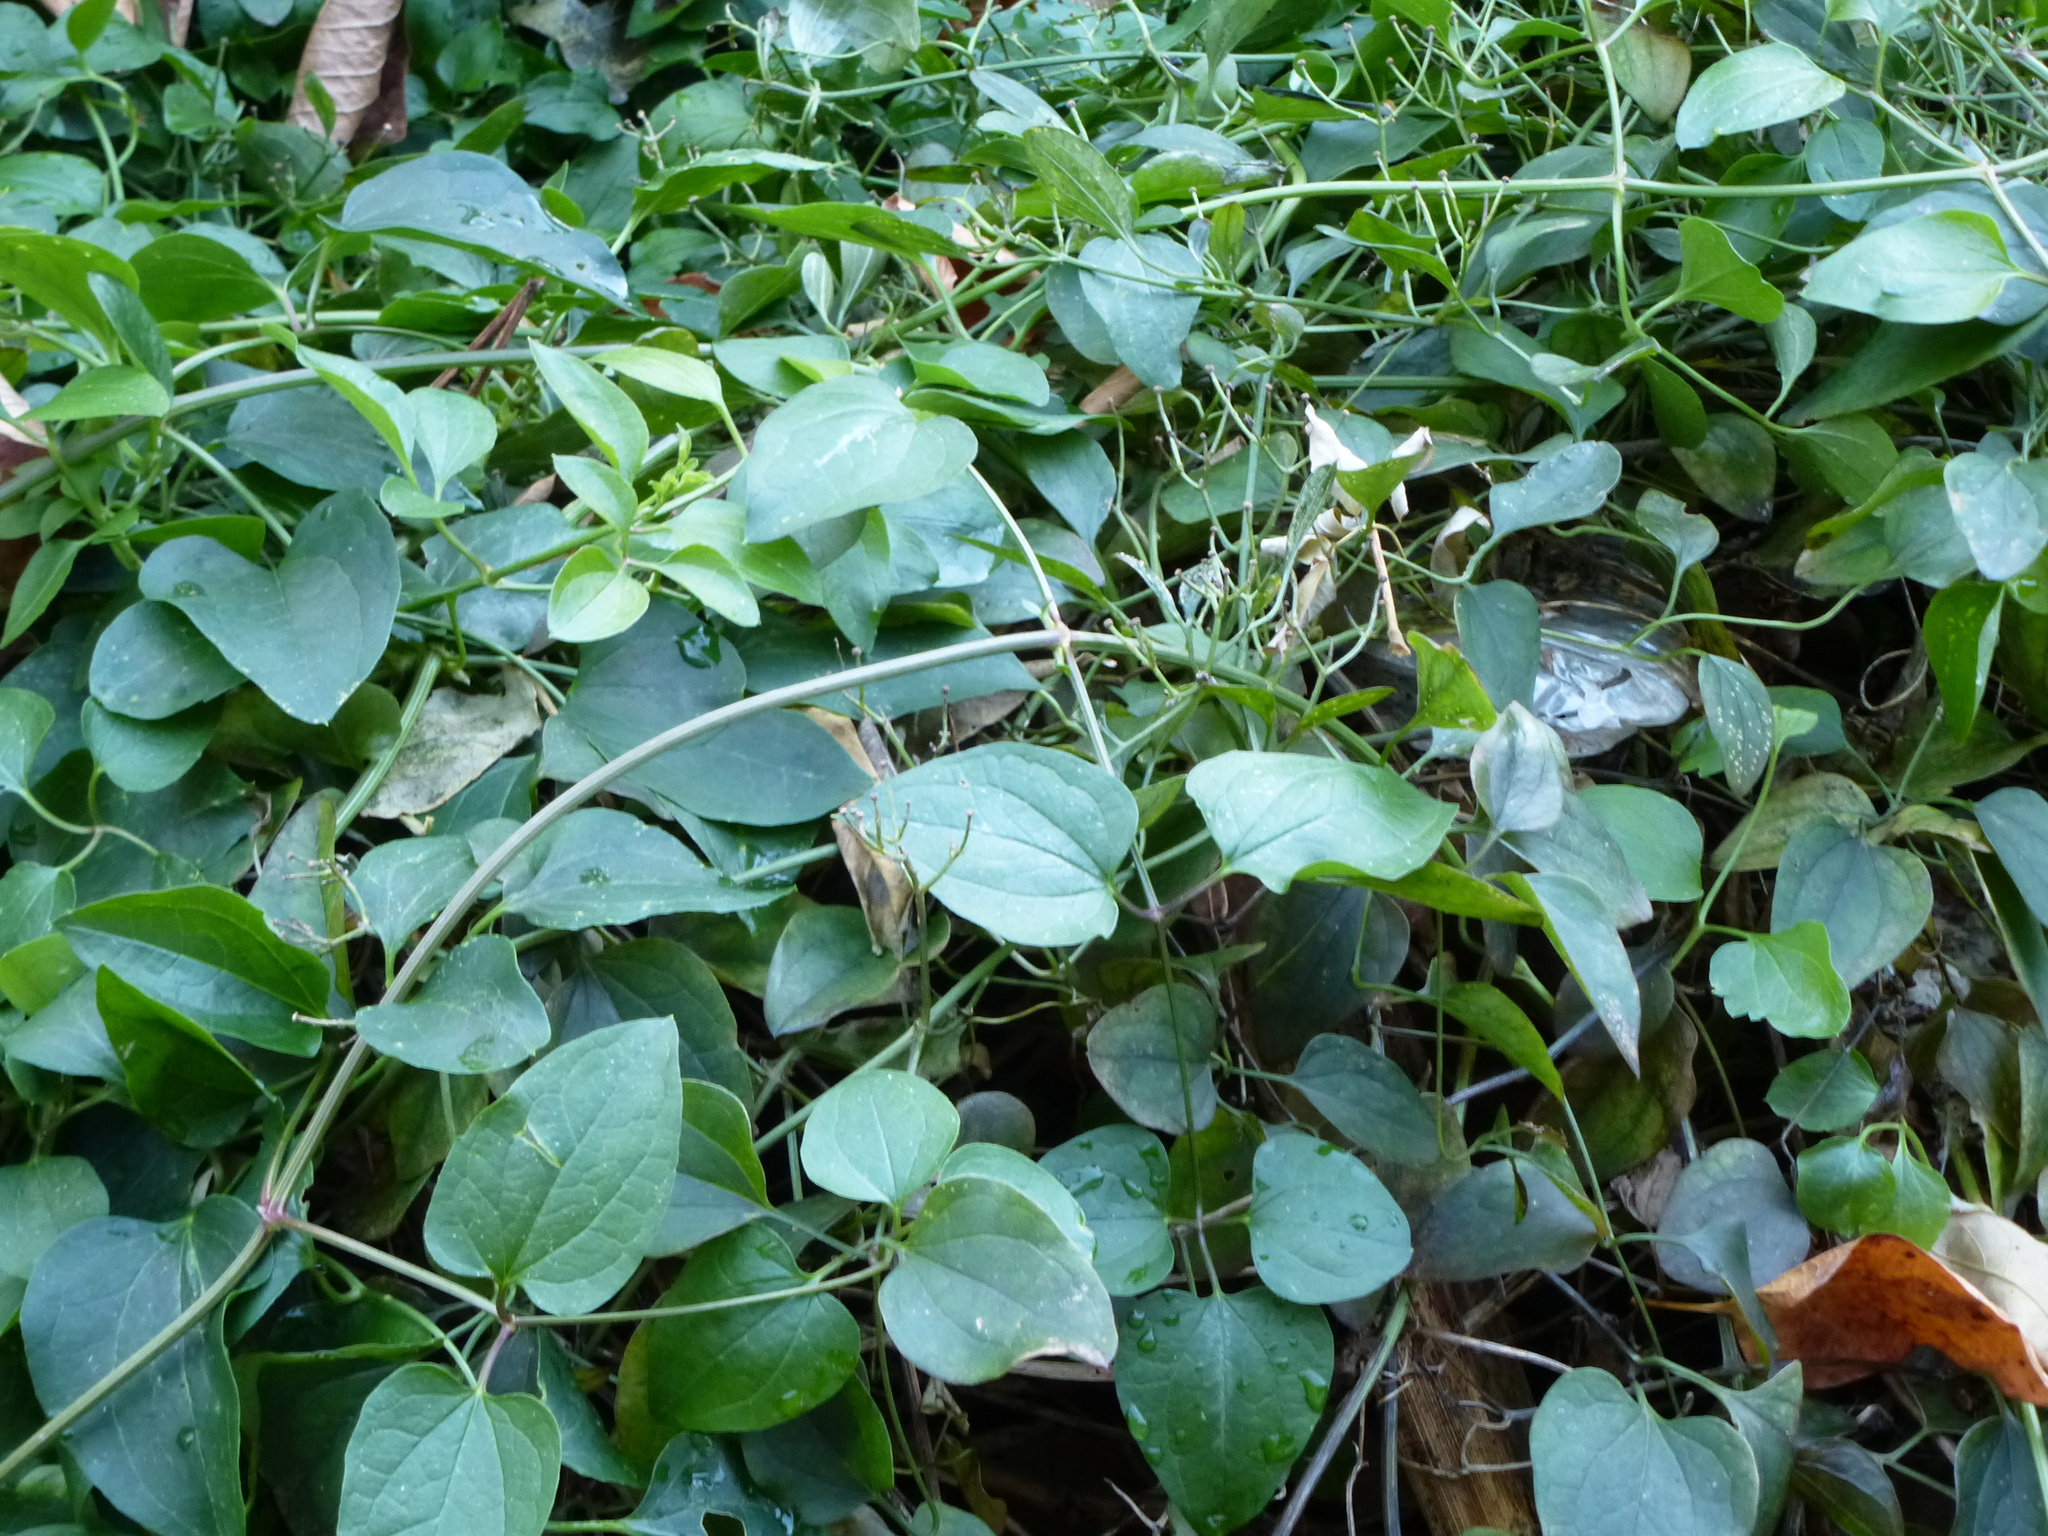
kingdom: Plantae
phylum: Tracheophyta
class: Magnoliopsida
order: Ranunculales
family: Ranunculaceae
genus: Clematis
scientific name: Clematis terniflora
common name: Sweet autumn clematis
